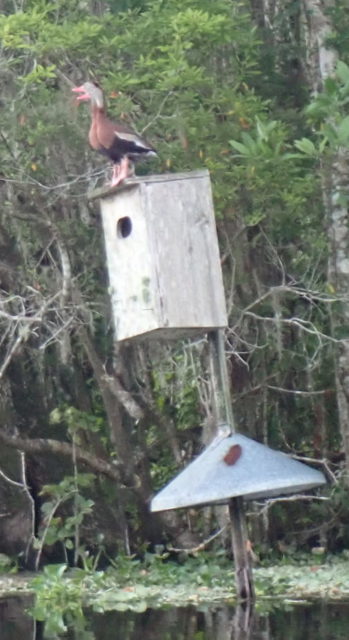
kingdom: Animalia
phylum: Chordata
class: Aves
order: Anseriformes
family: Anatidae
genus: Dendrocygna
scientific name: Dendrocygna autumnalis
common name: Black-bellied whistling duck
